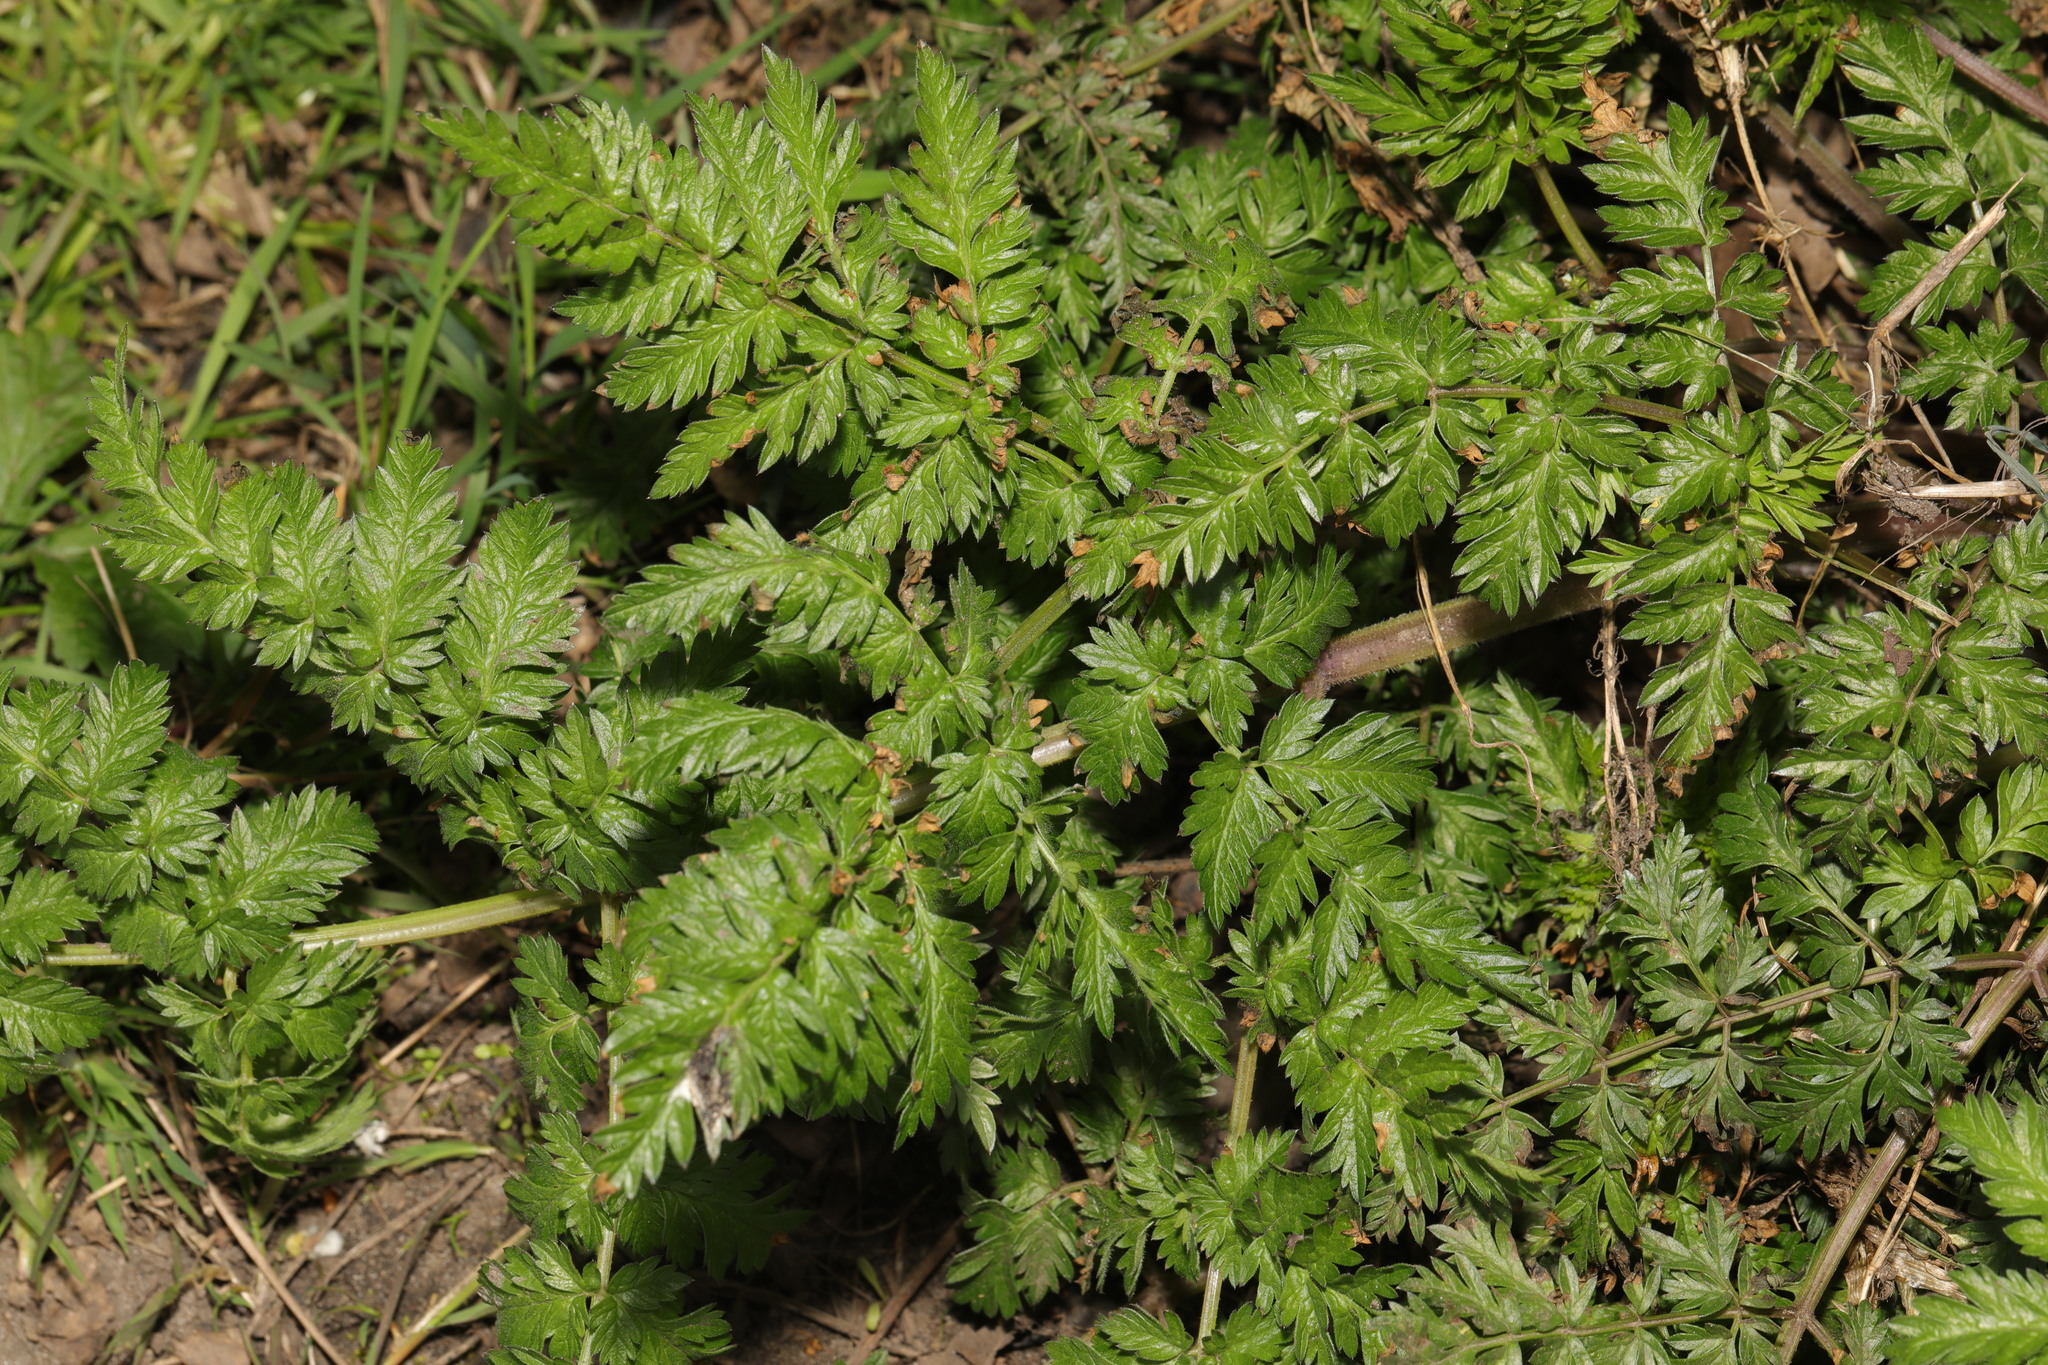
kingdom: Plantae
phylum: Tracheophyta
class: Magnoliopsida
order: Apiales
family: Apiaceae
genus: Anthriscus
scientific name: Anthriscus sylvestris
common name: Cow parsley
